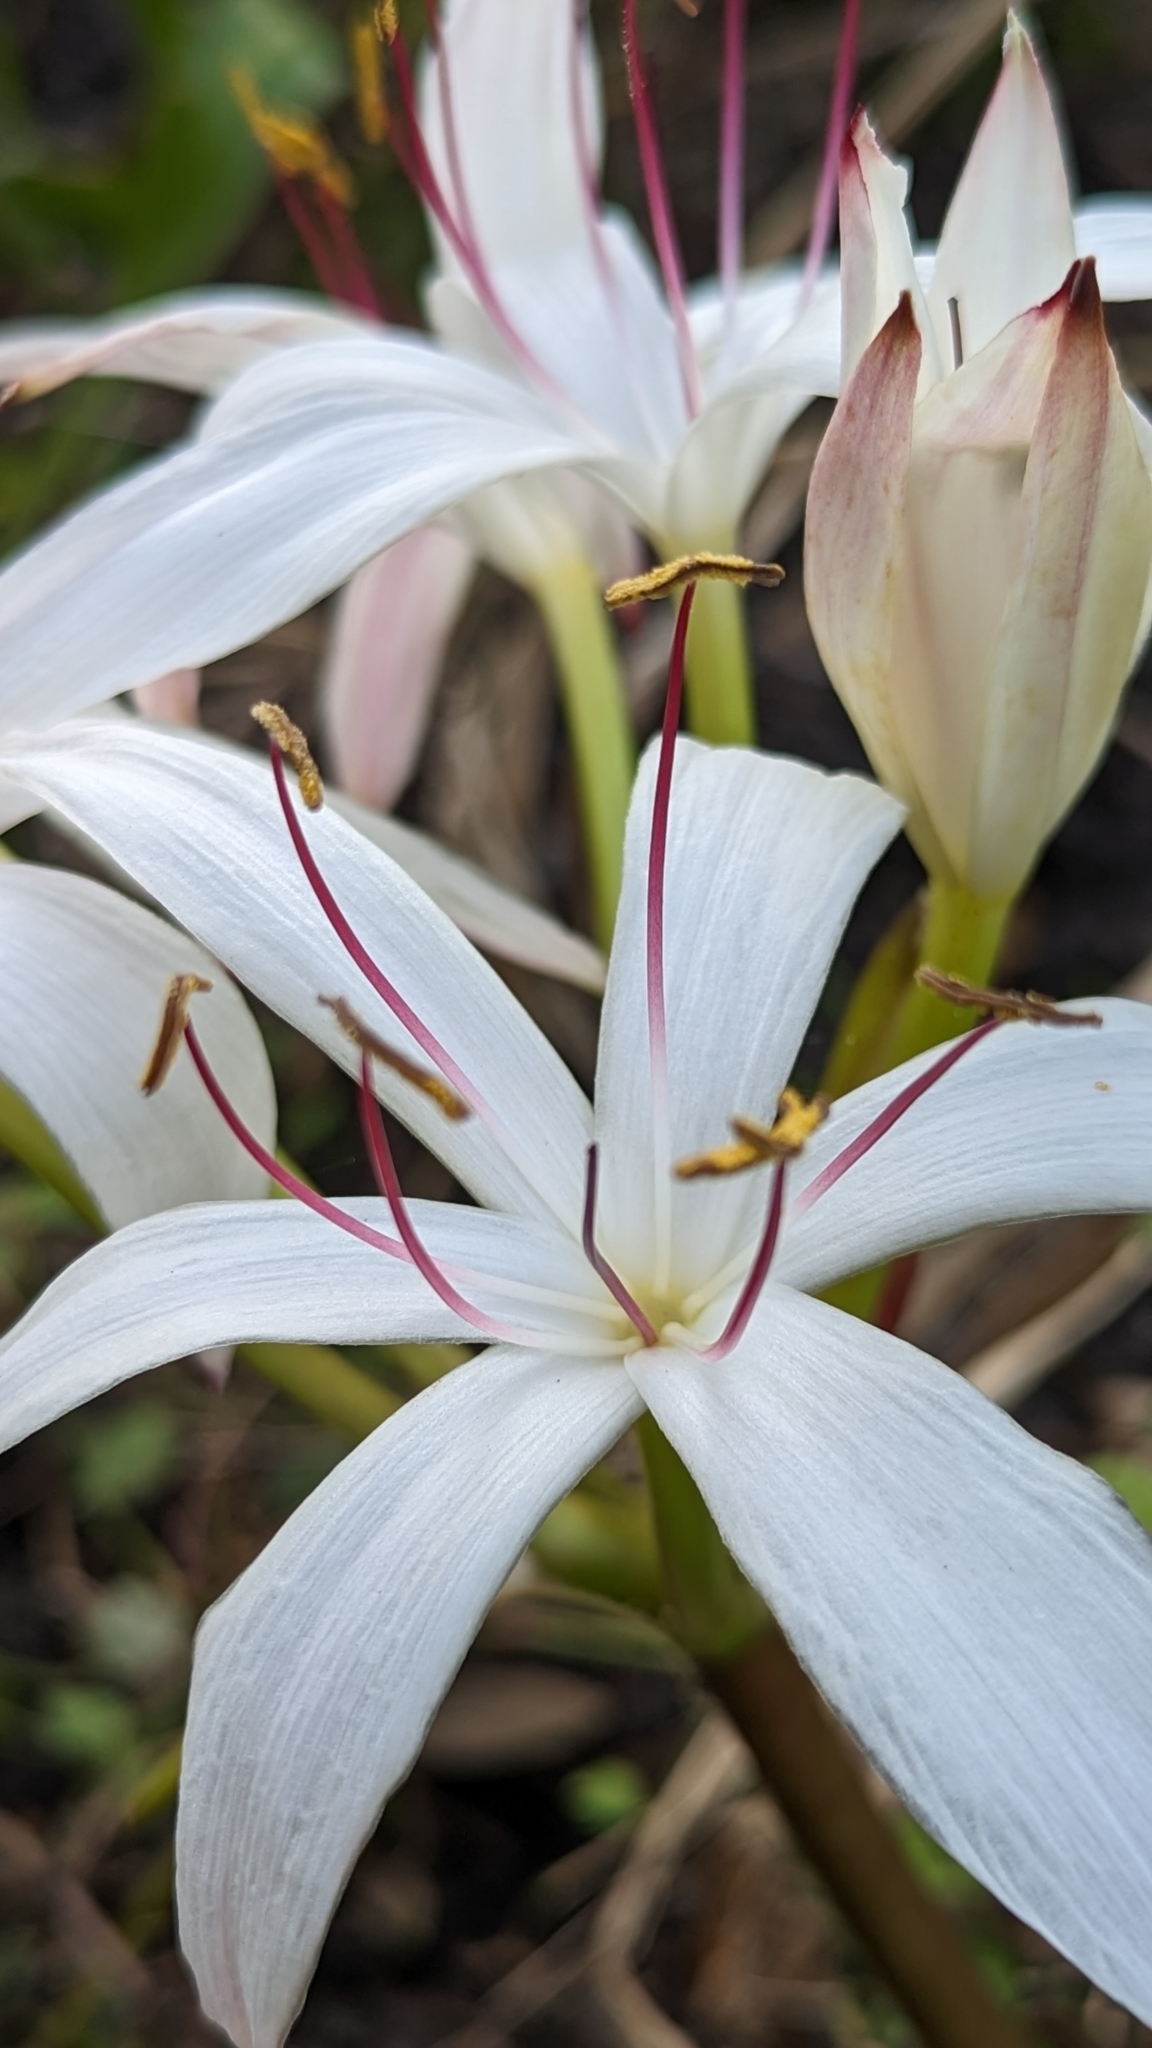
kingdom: Plantae
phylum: Tracheophyta
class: Liliopsida
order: Asparagales
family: Amaryllidaceae
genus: Crinum
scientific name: Crinum americanum
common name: Florida swamp-lily
